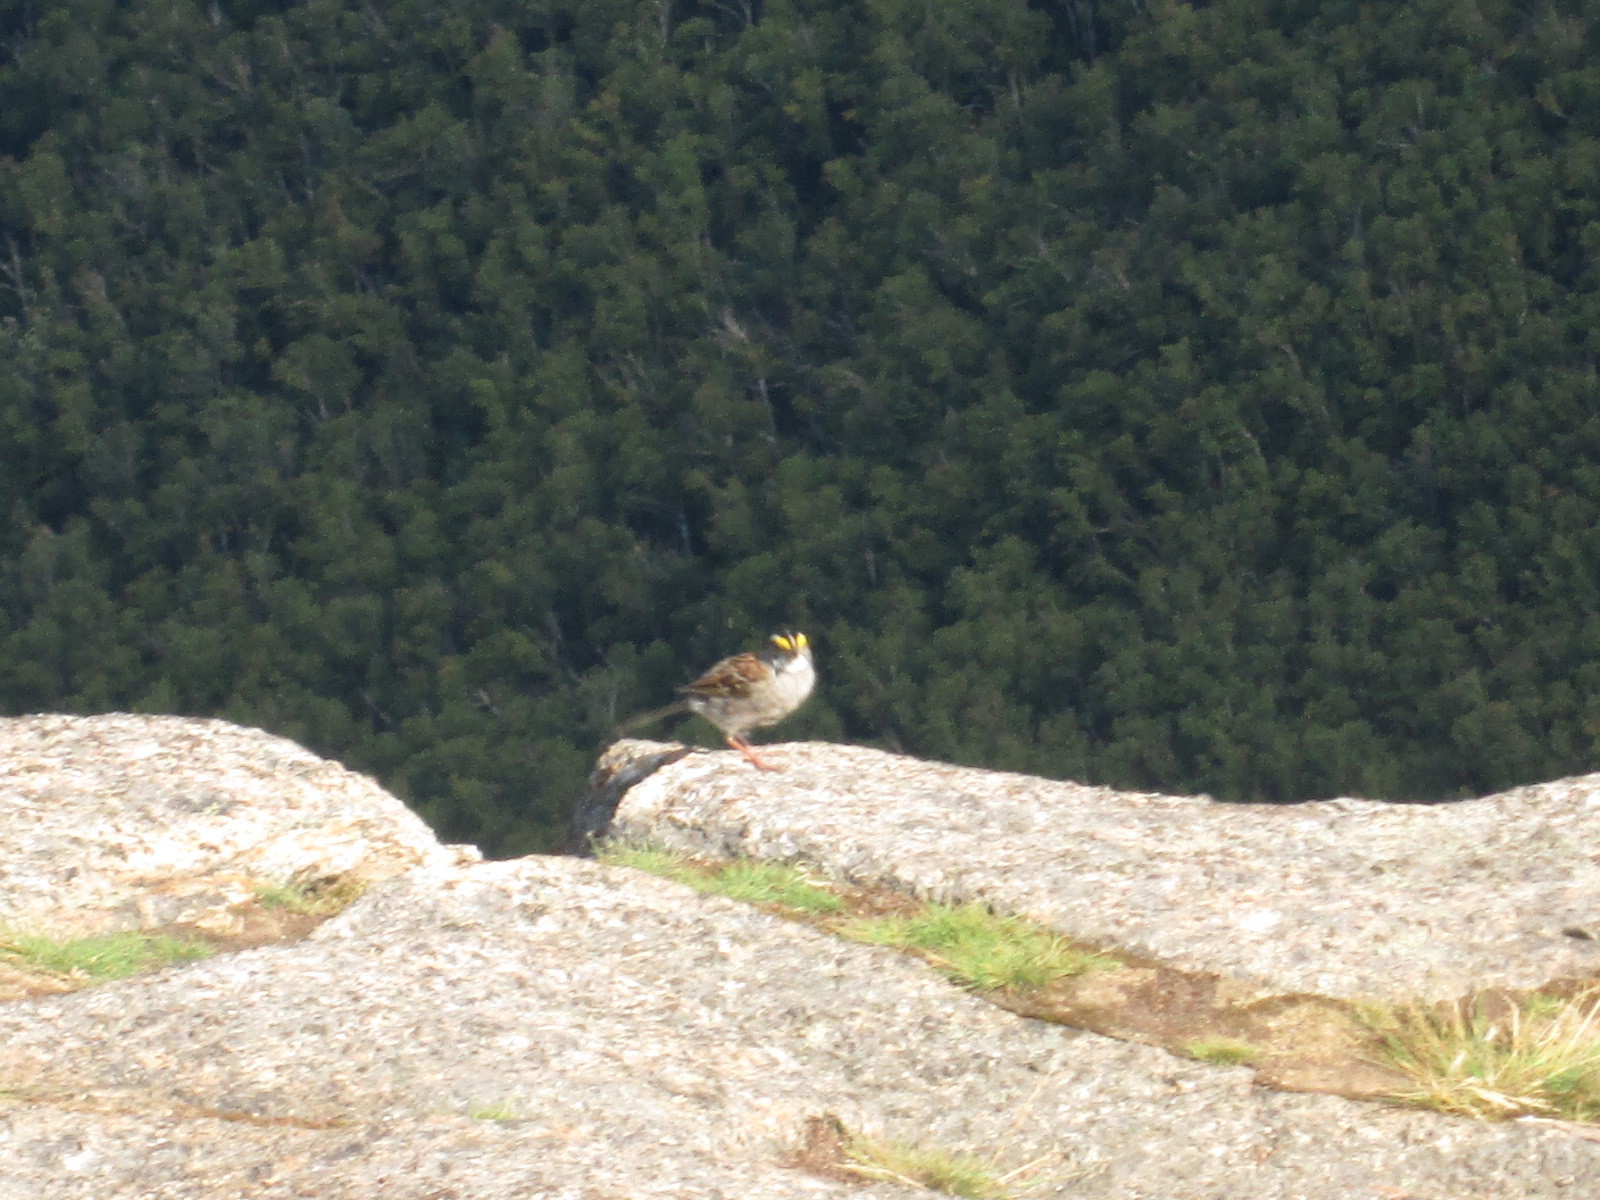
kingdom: Animalia
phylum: Chordata
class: Aves
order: Passeriformes
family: Passerellidae
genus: Zonotrichia
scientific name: Zonotrichia albicollis
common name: White-throated sparrow
